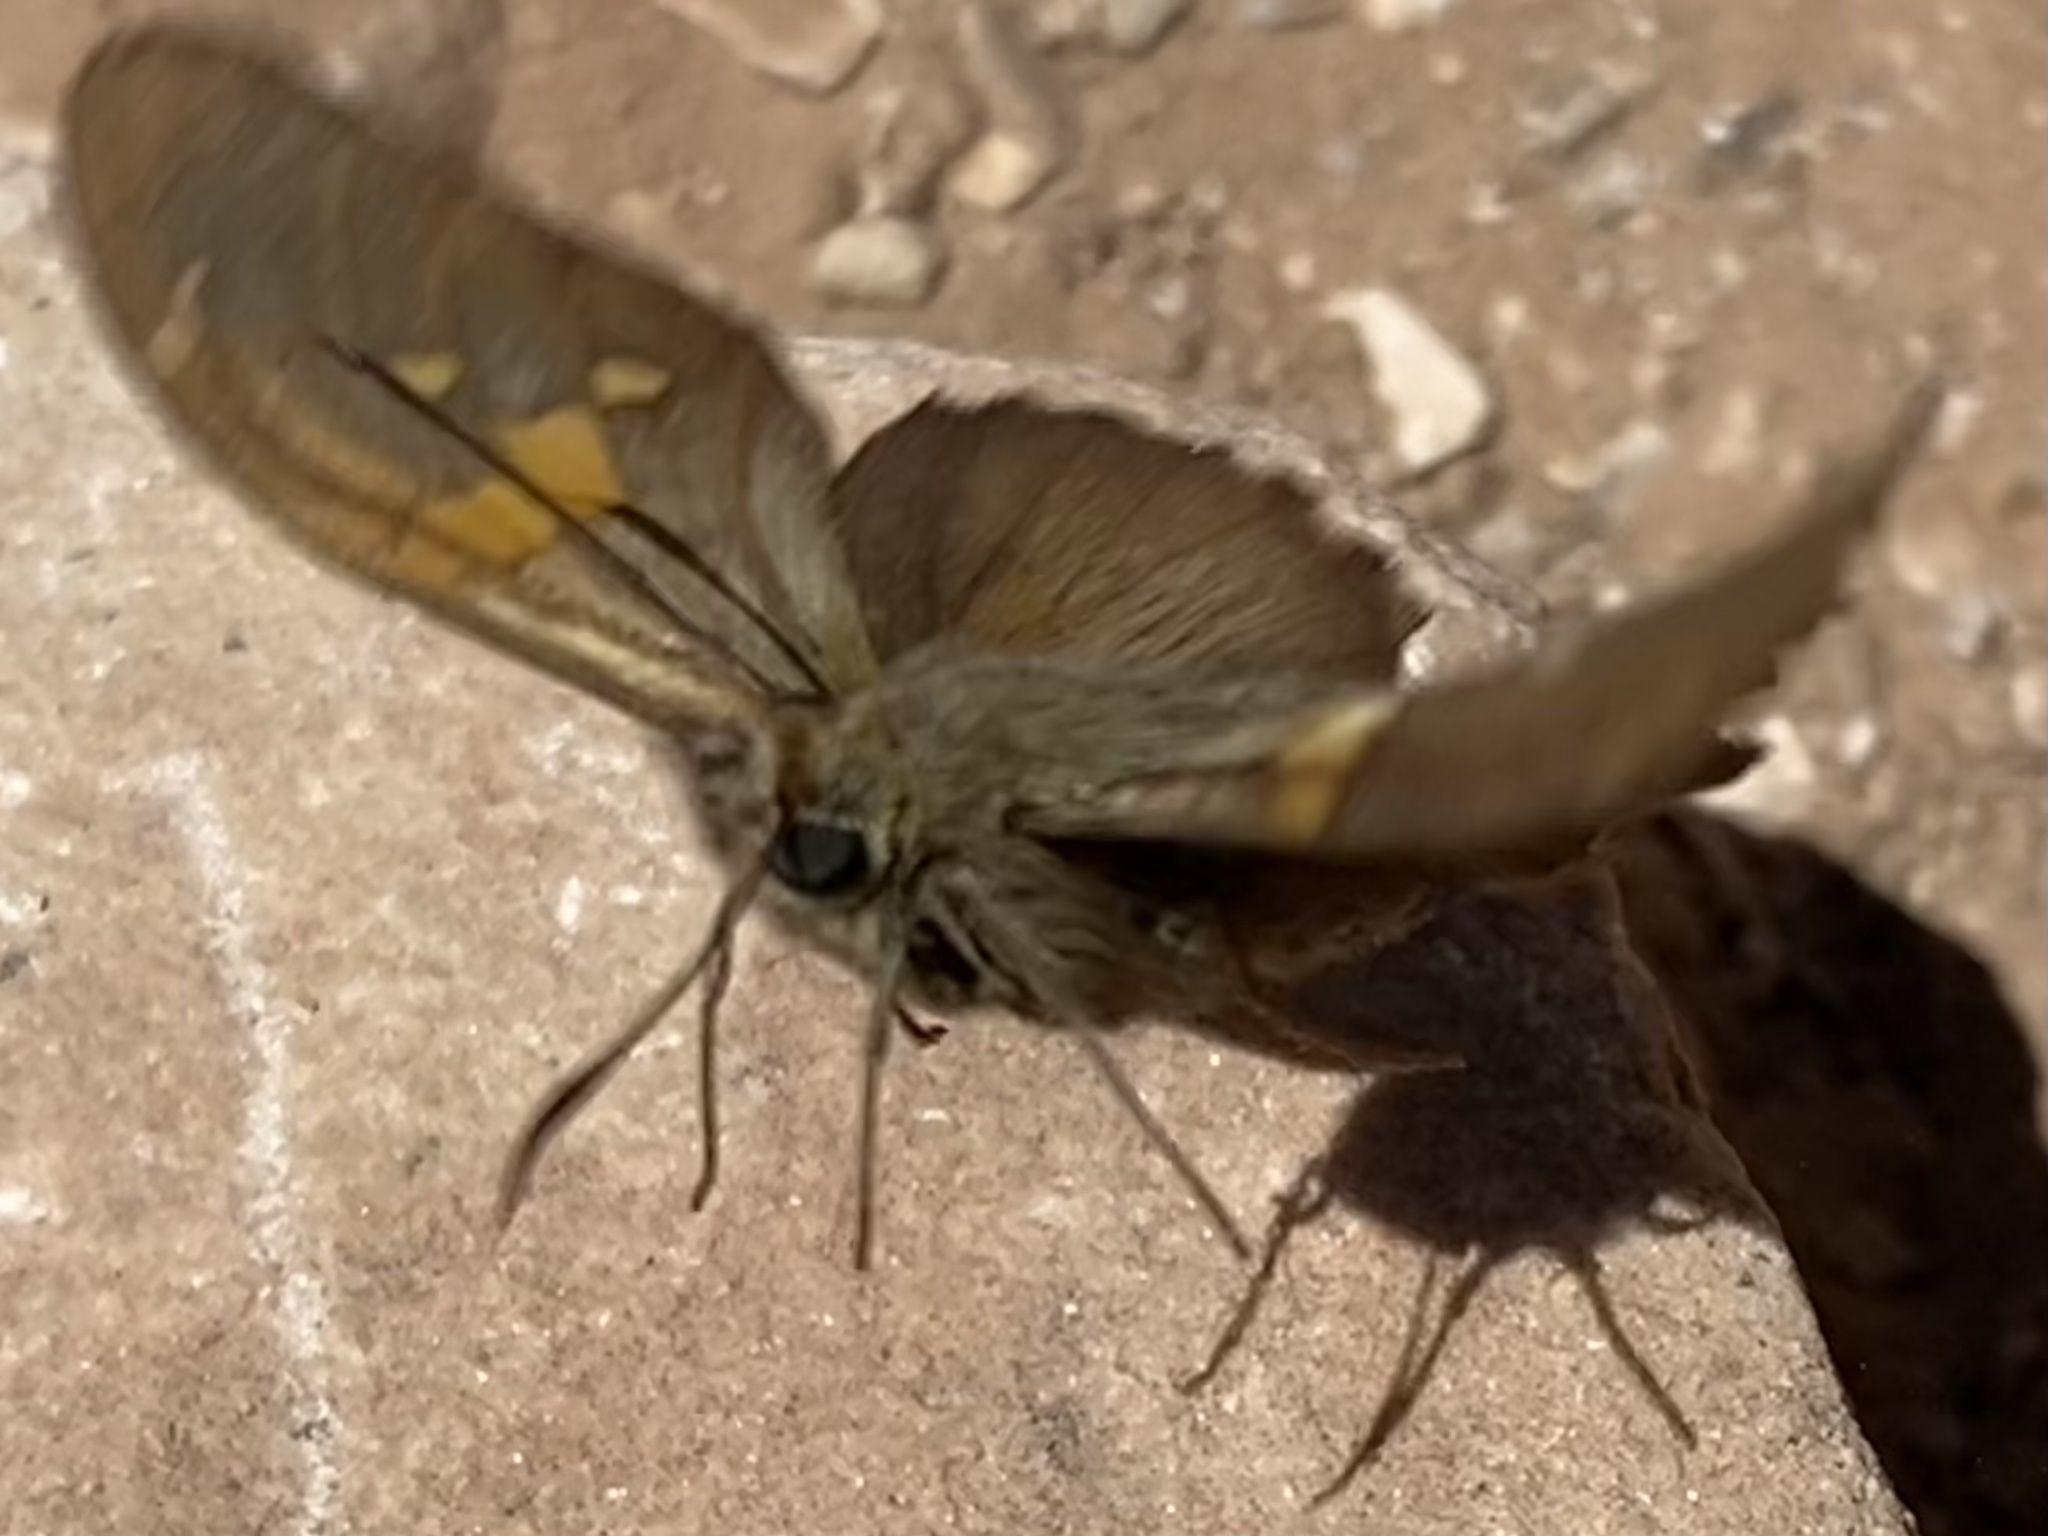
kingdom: Animalia
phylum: Arthropoda
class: Insecta
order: Lepidoptera
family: Hesperiidae
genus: Epargyreus
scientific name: Epargyreus clarus
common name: Silver-spotted skipper
